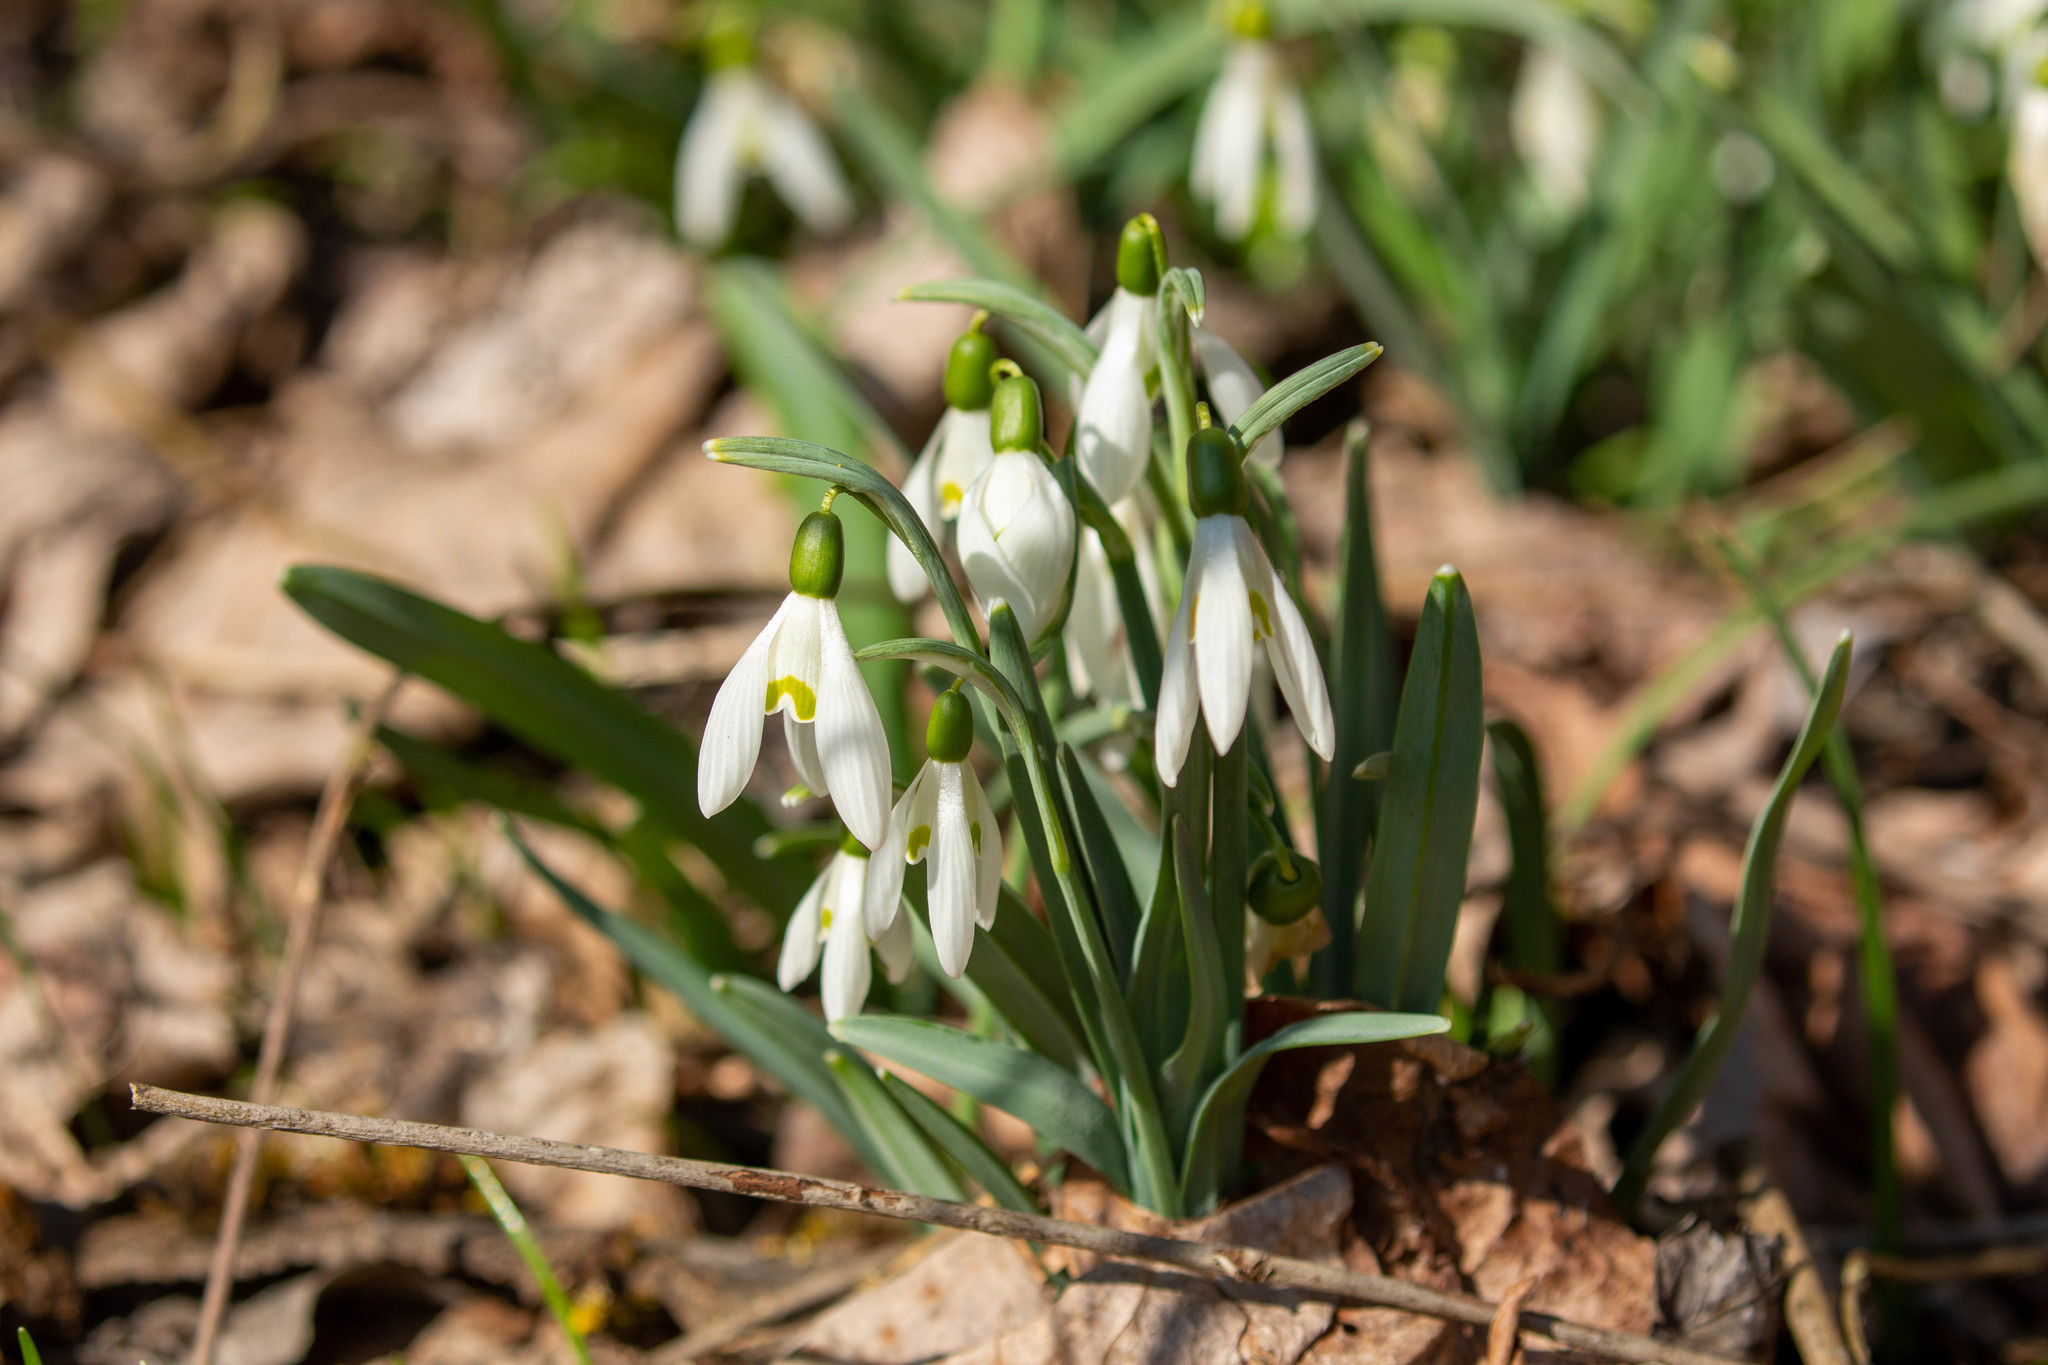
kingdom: Plantae
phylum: Tracheophyta
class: Liliopsida
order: Asparagales
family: Amaryllidaceae
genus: Galanthus
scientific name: Galanthus nivalis
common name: Snowdrop
